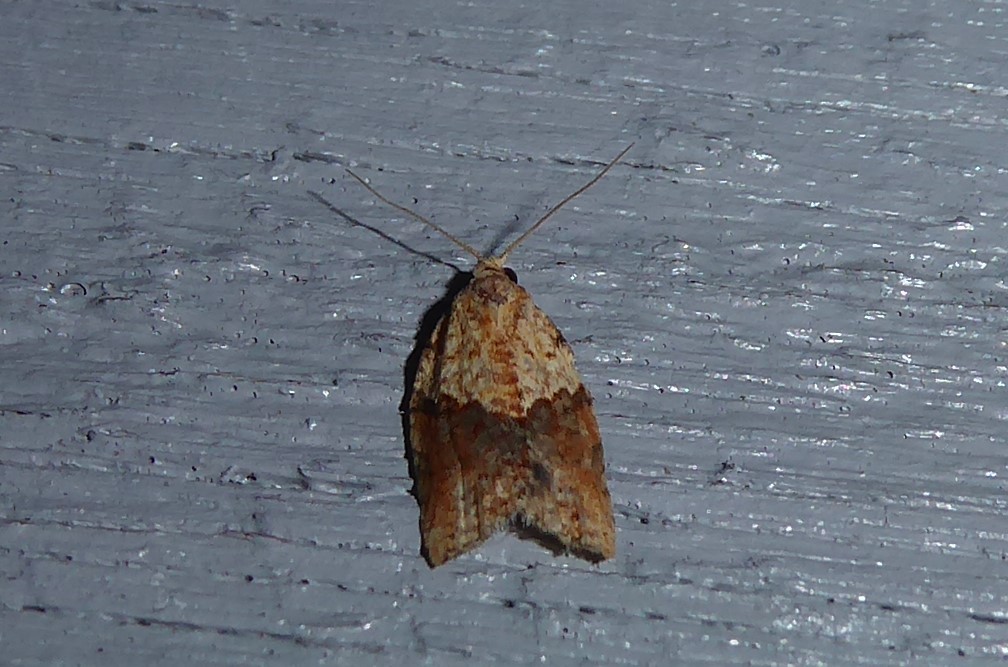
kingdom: Animalia
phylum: Arthropoda
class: Insecta
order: Lepidoptera
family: Tortricidae
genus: Epiphyas
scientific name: Epiphyas postvittana
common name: Light brown apple moth
